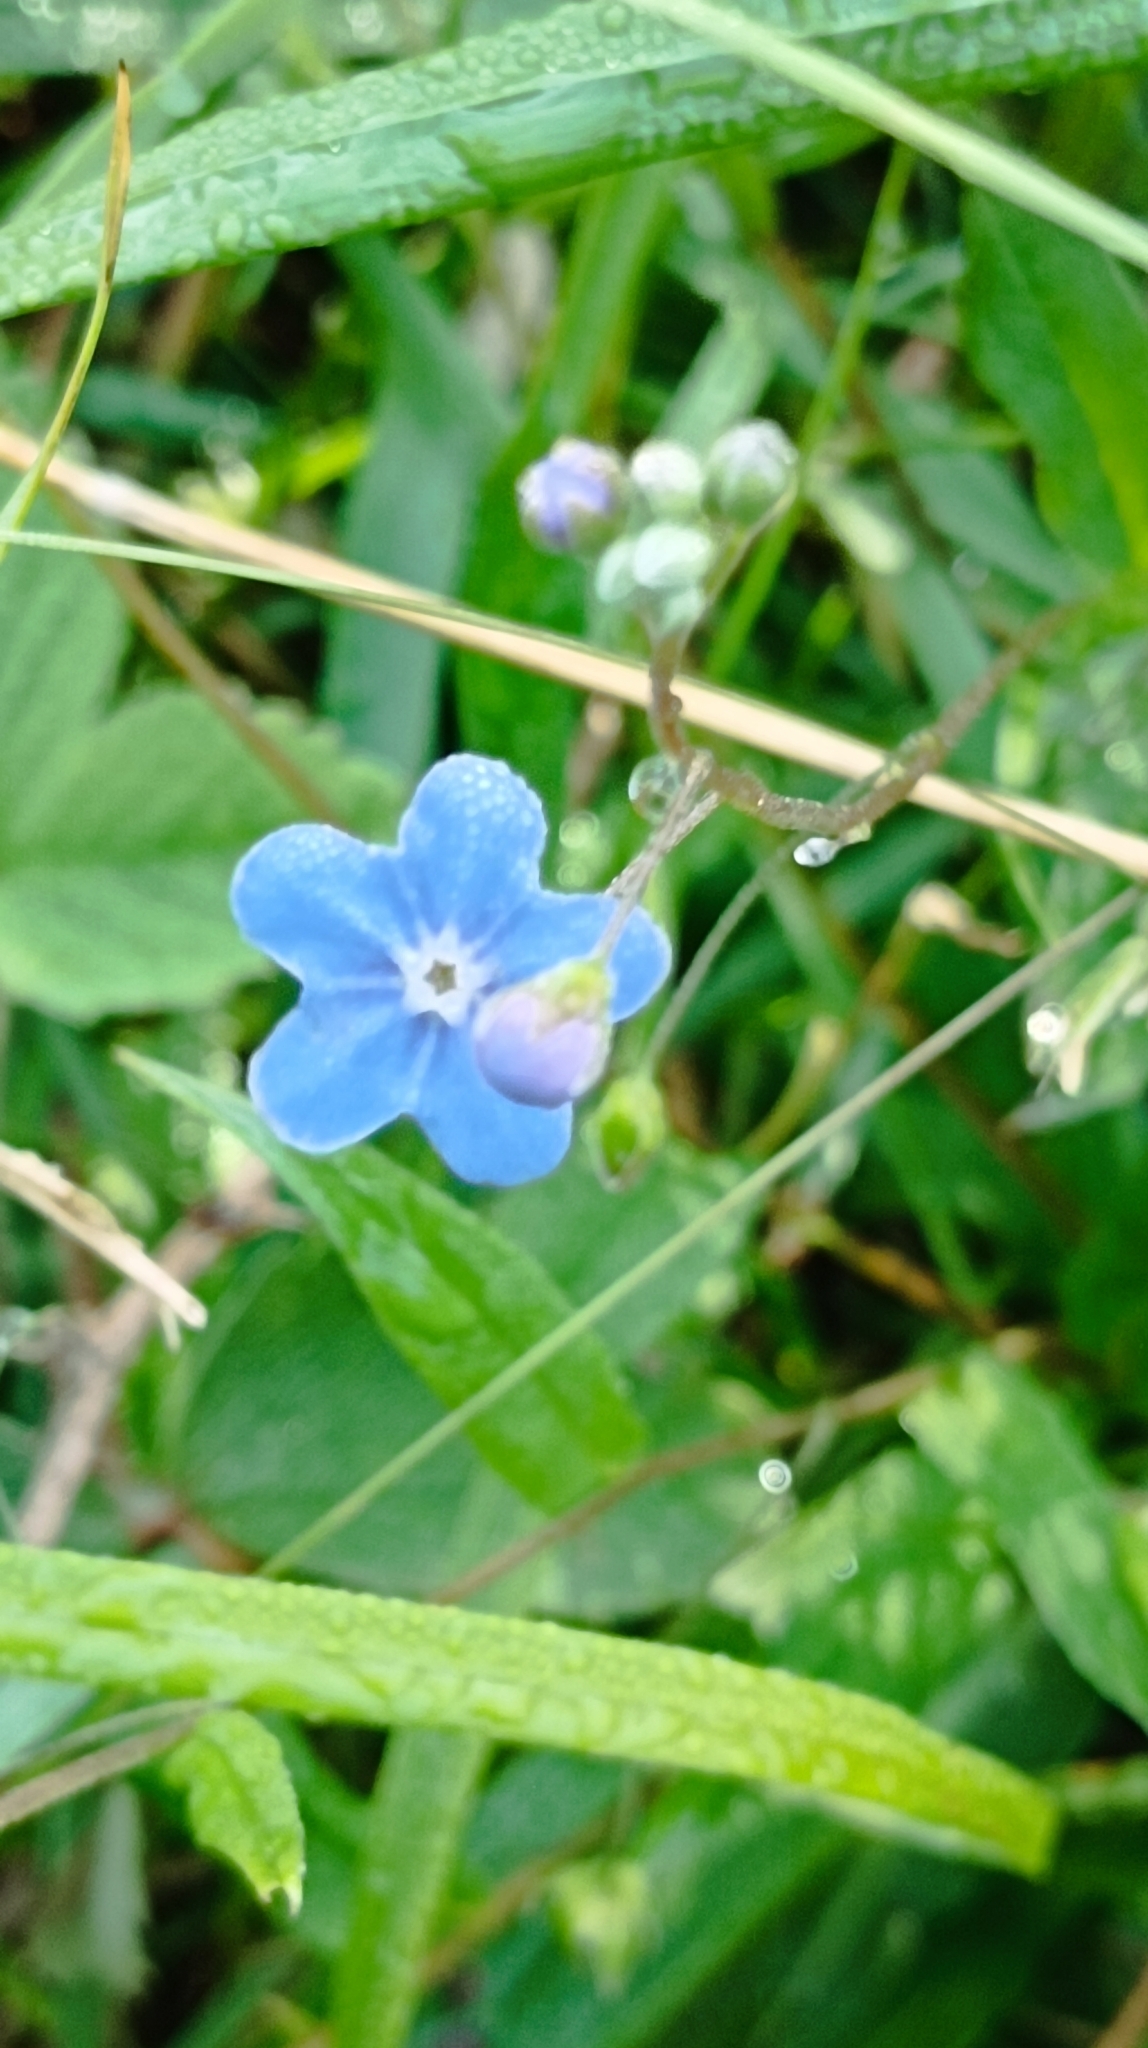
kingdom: Plantae
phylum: Tracheophyta
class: Magnoliopsida
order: Boraginales
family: Boraginaceae
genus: Omphalodes
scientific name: Omphalodes nitida
